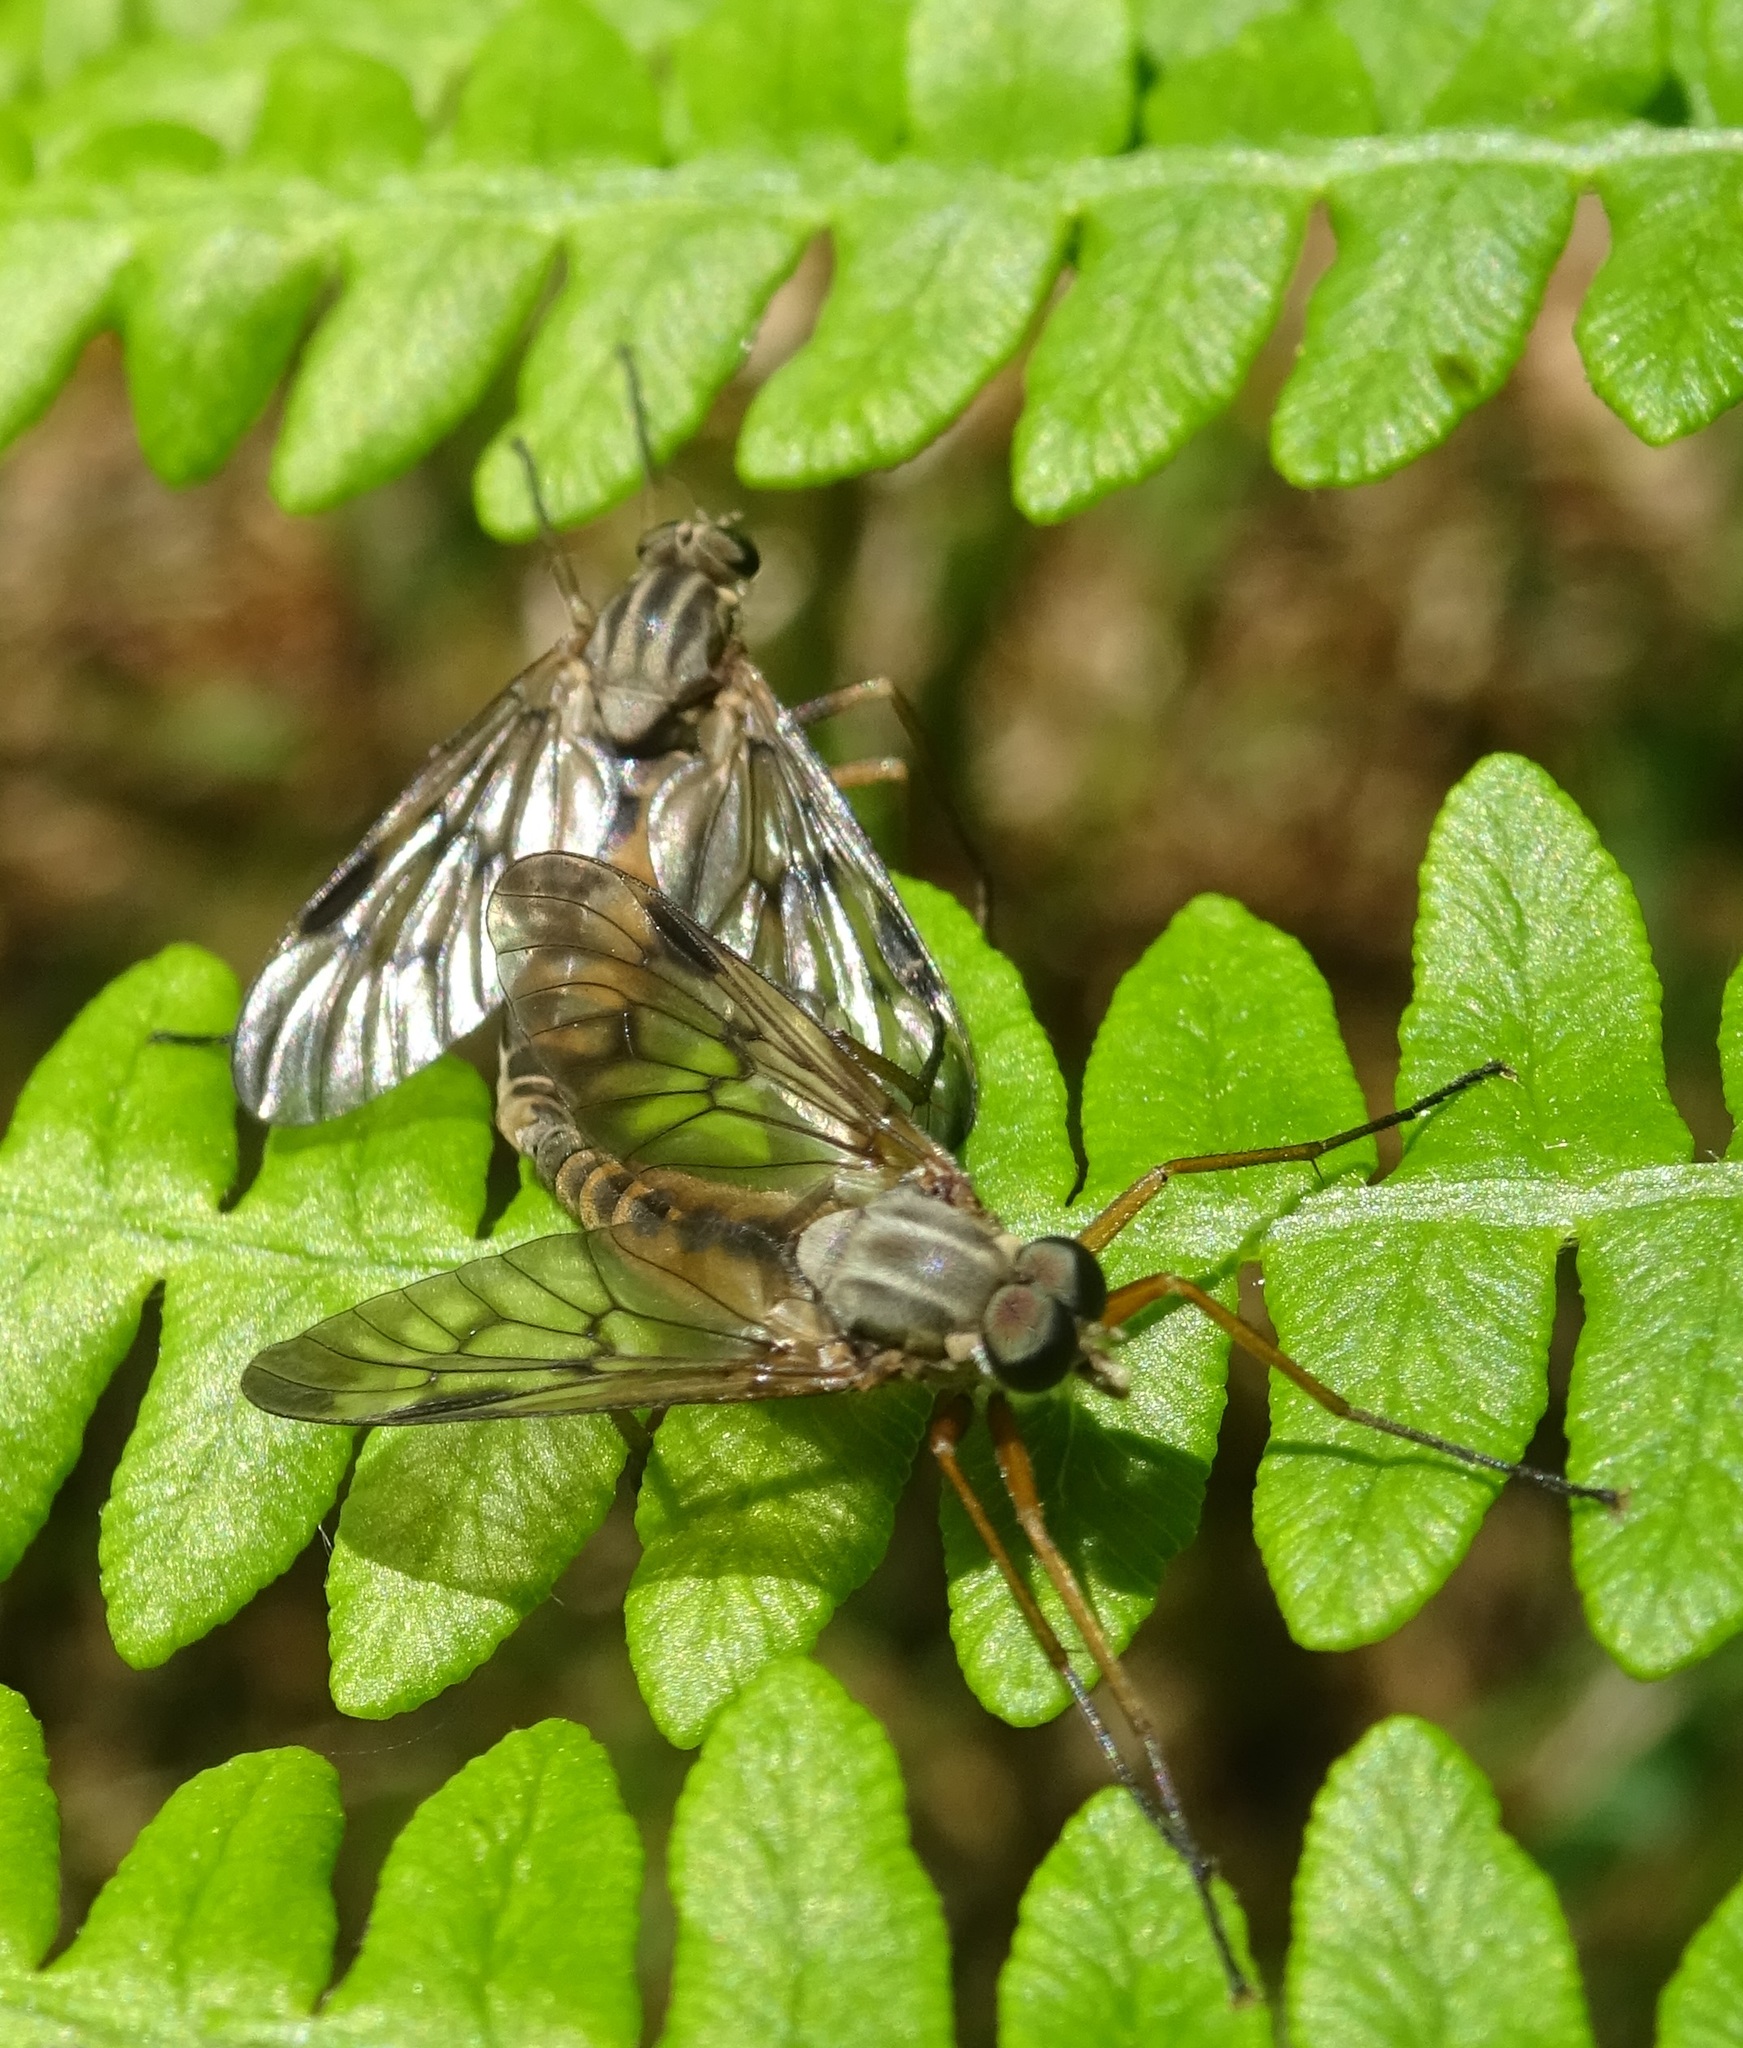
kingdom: Animalia
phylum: Arthropoda
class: Insecta
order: Diptera
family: Rhagionidae
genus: Rhagio
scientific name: Rhagio scolopacea
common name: Downlooker snipefly
